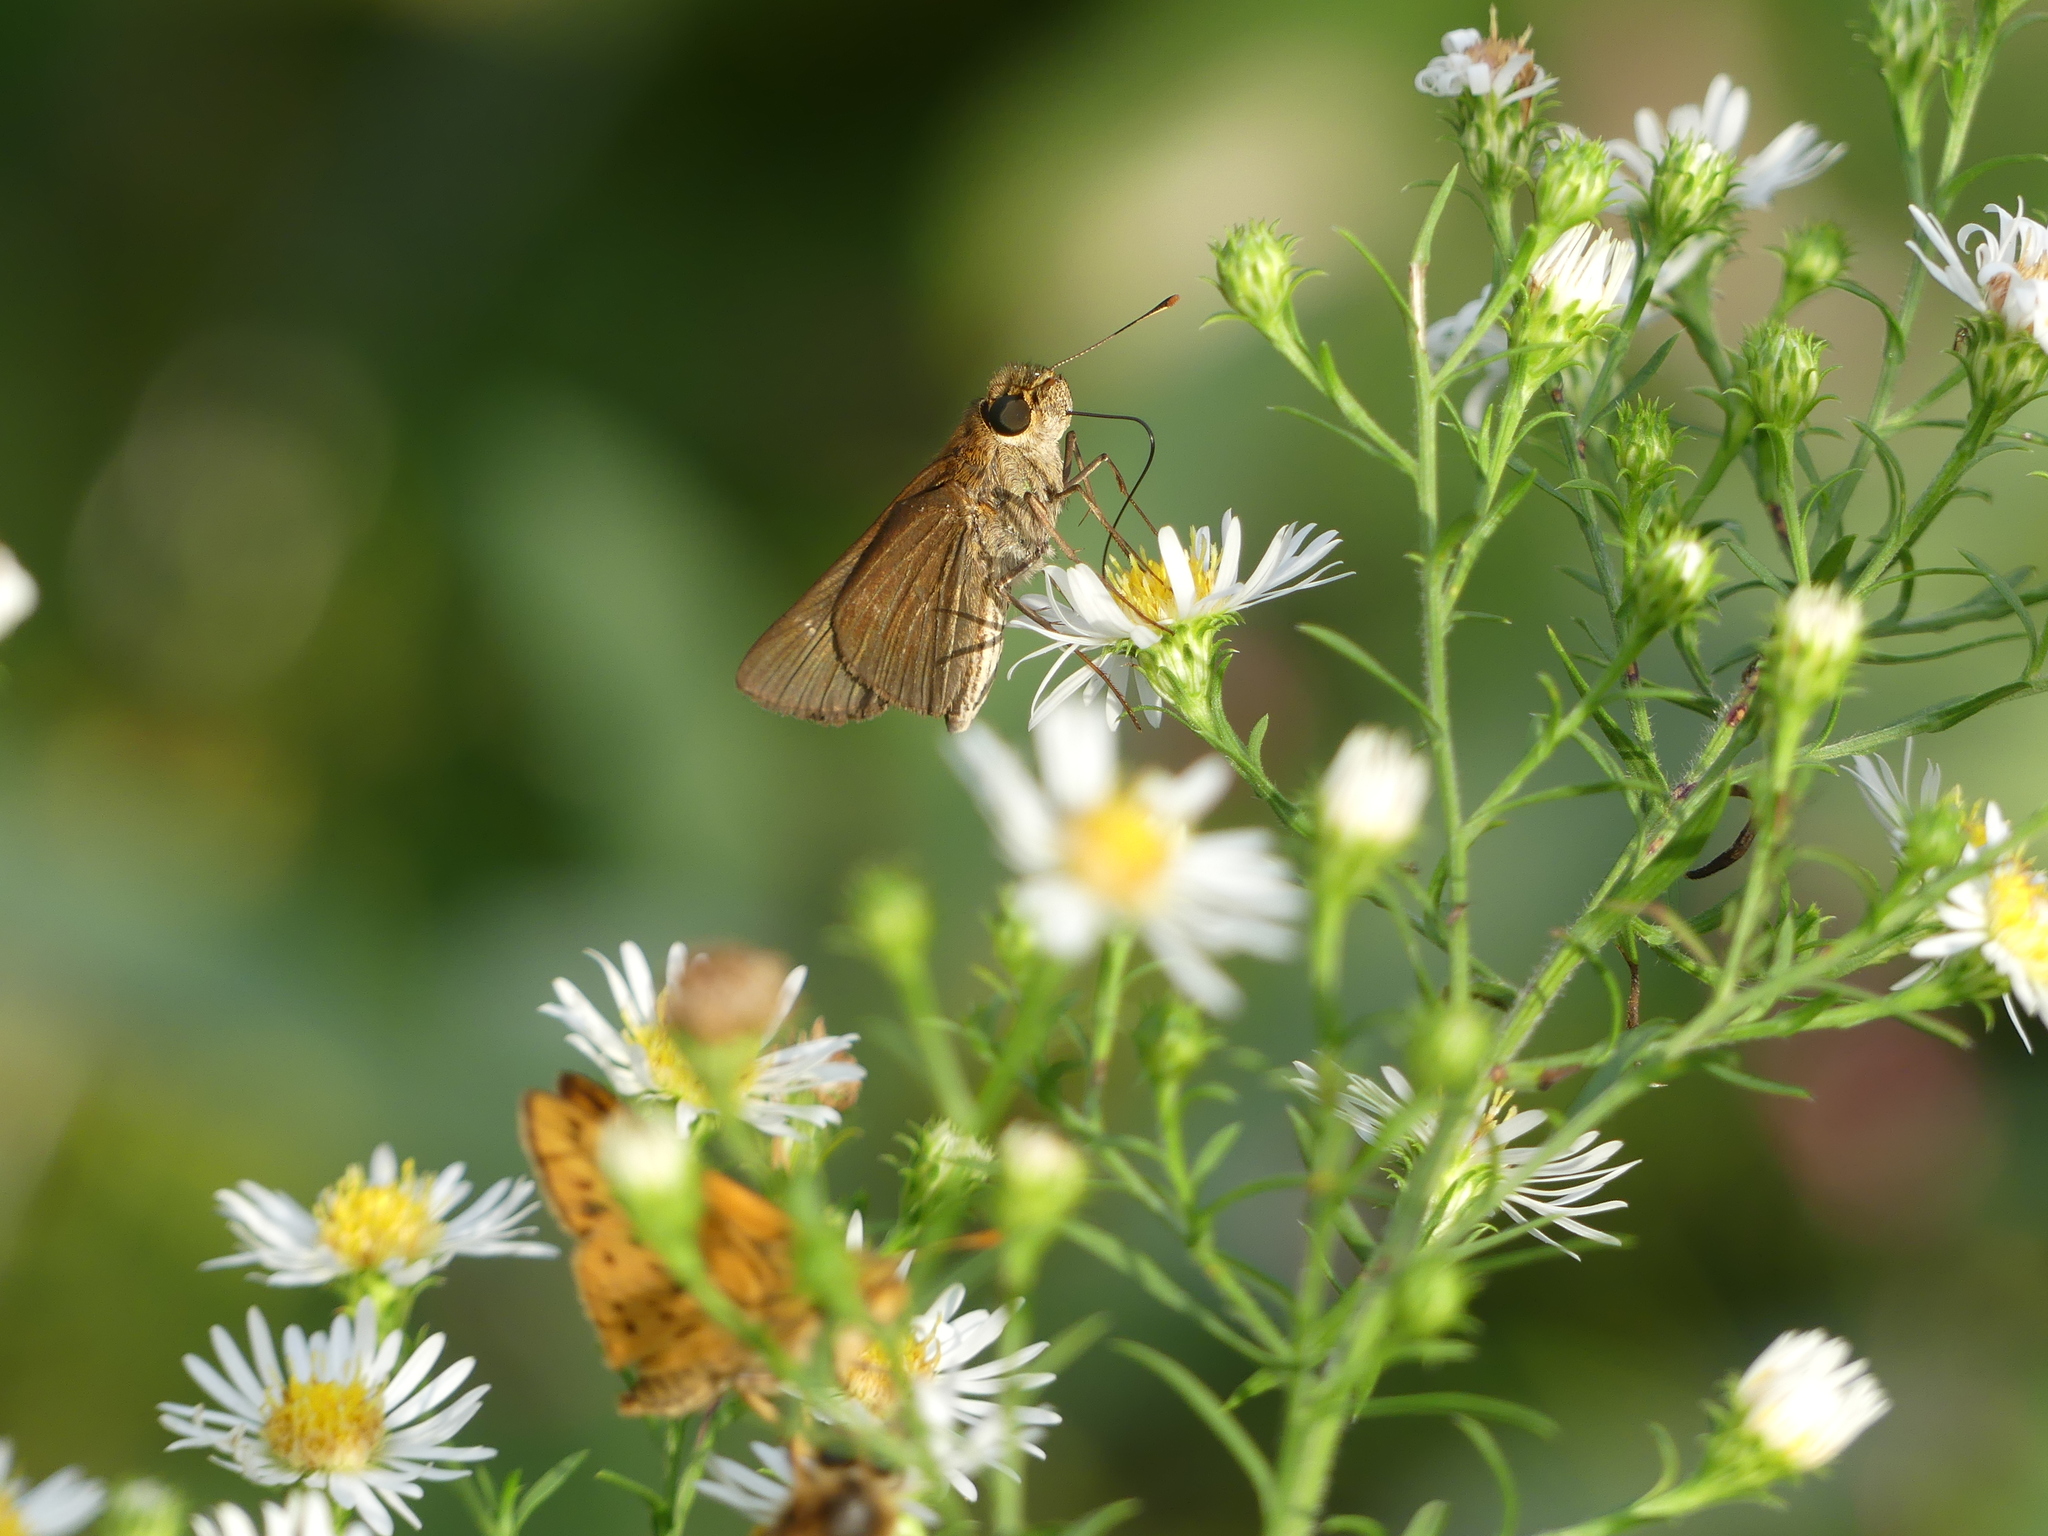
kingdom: Animalia
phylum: Arthropoda
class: Insecta
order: Lepidoptera
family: Hesperiidae
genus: Panoquina
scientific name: Panoquina ocola
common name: Ocola skipper
